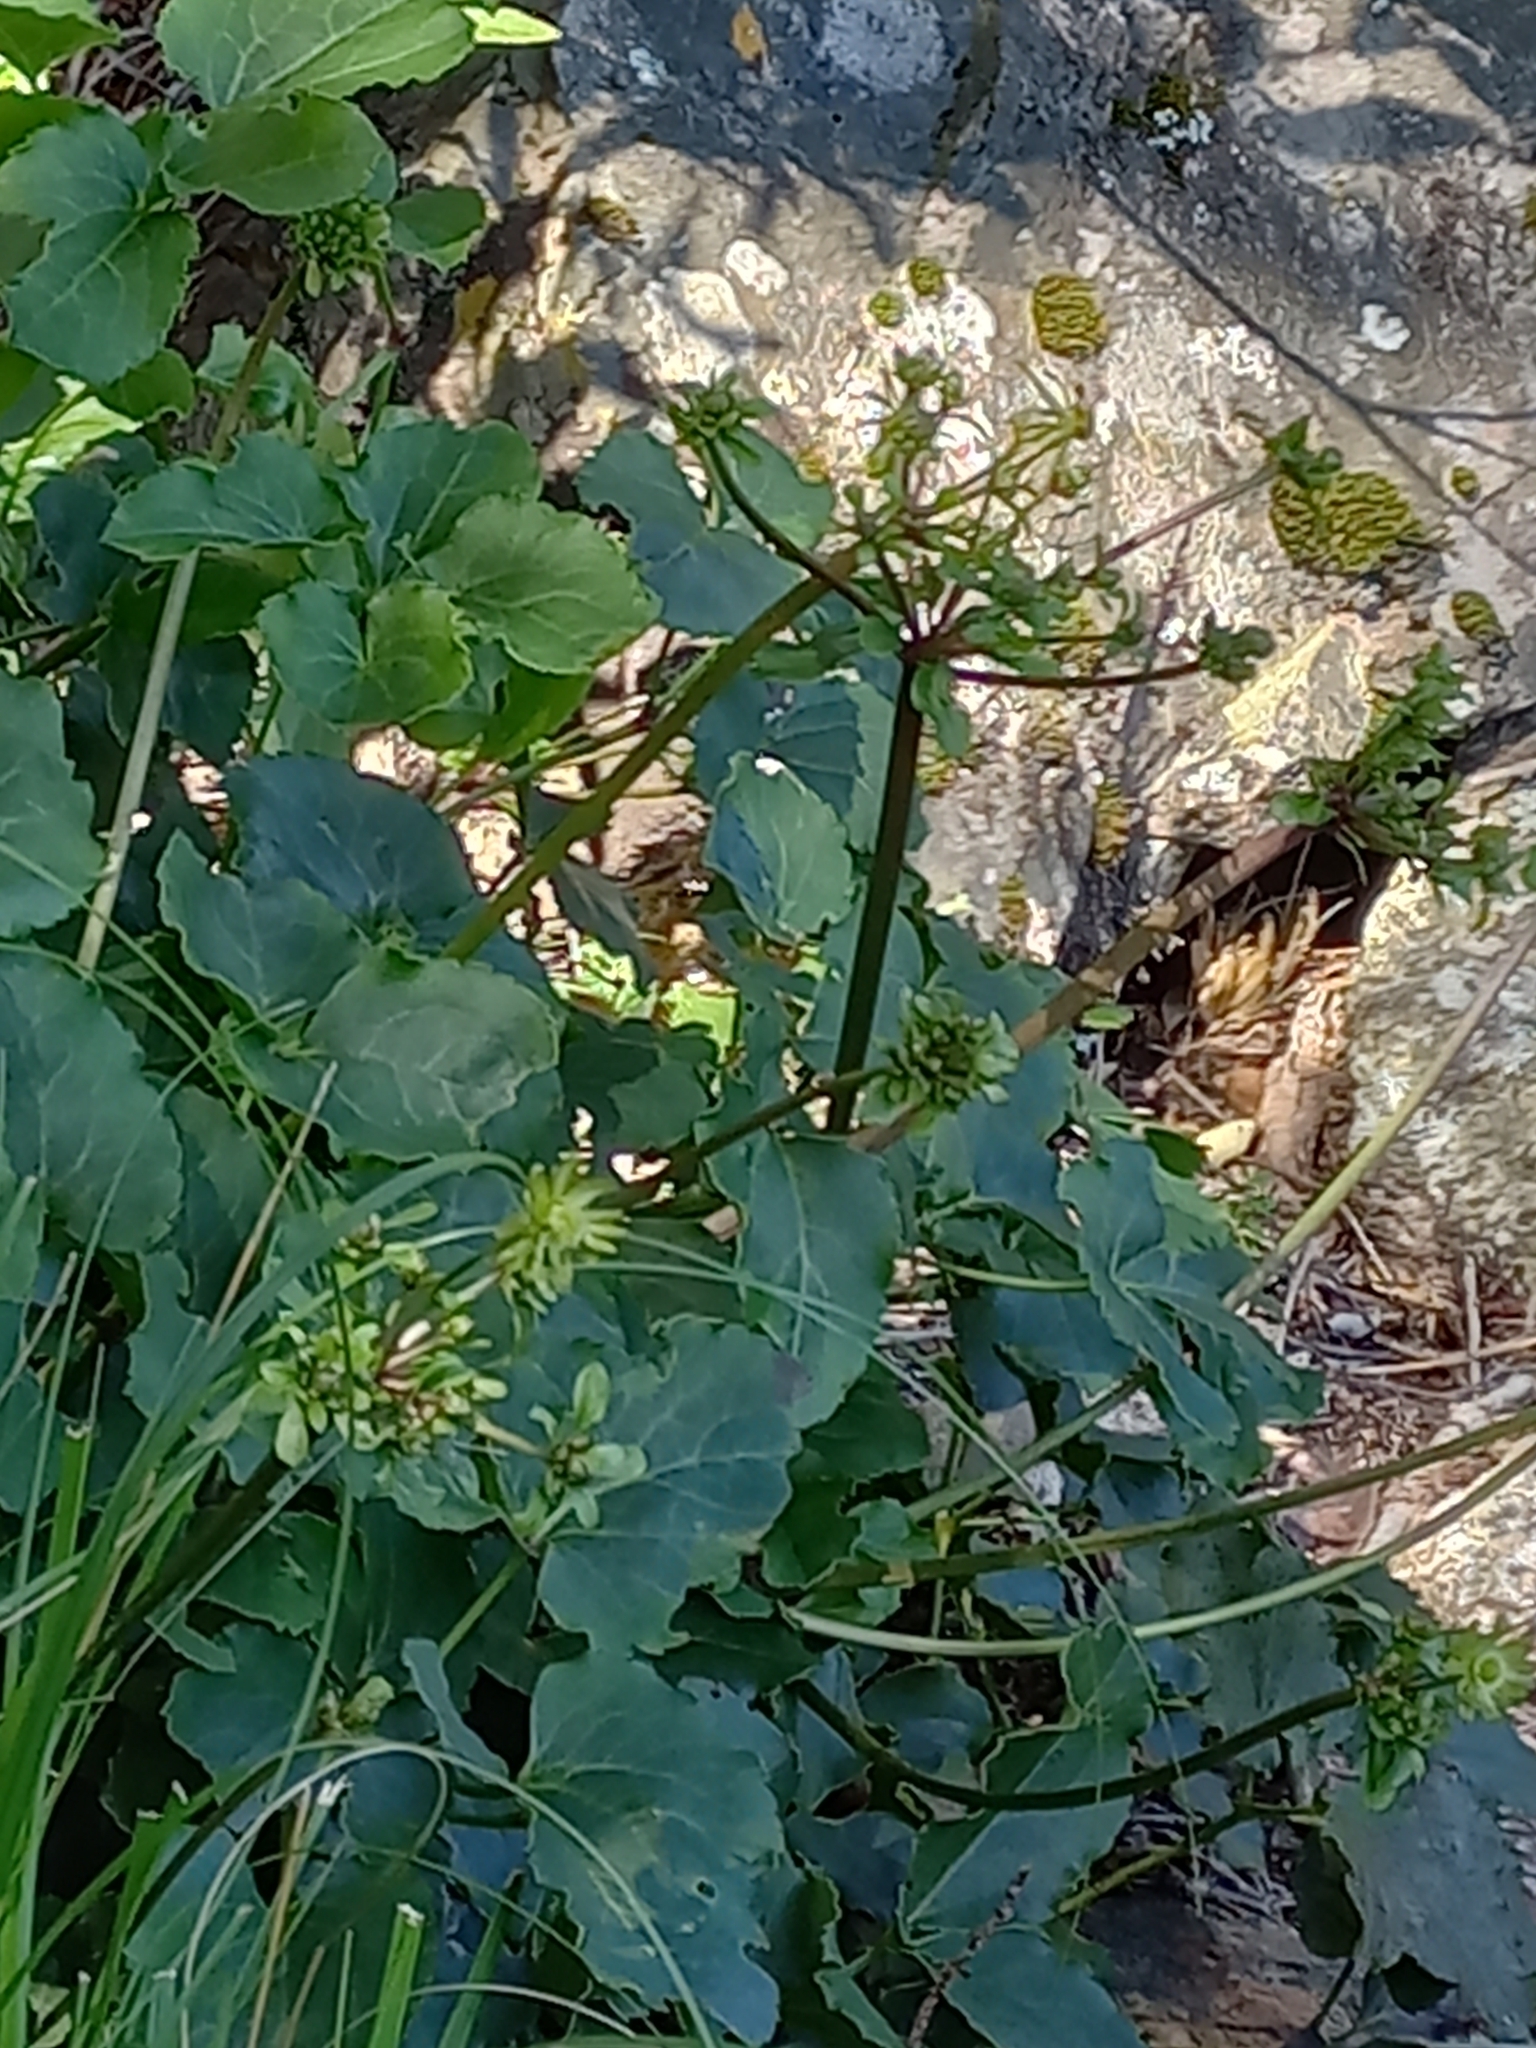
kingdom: Plantae
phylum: Tracheophyta
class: Magnoliopsida
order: Ranunculales
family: Ranunculaceae
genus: Knowltonia
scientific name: Knowltonia vesicatoria
